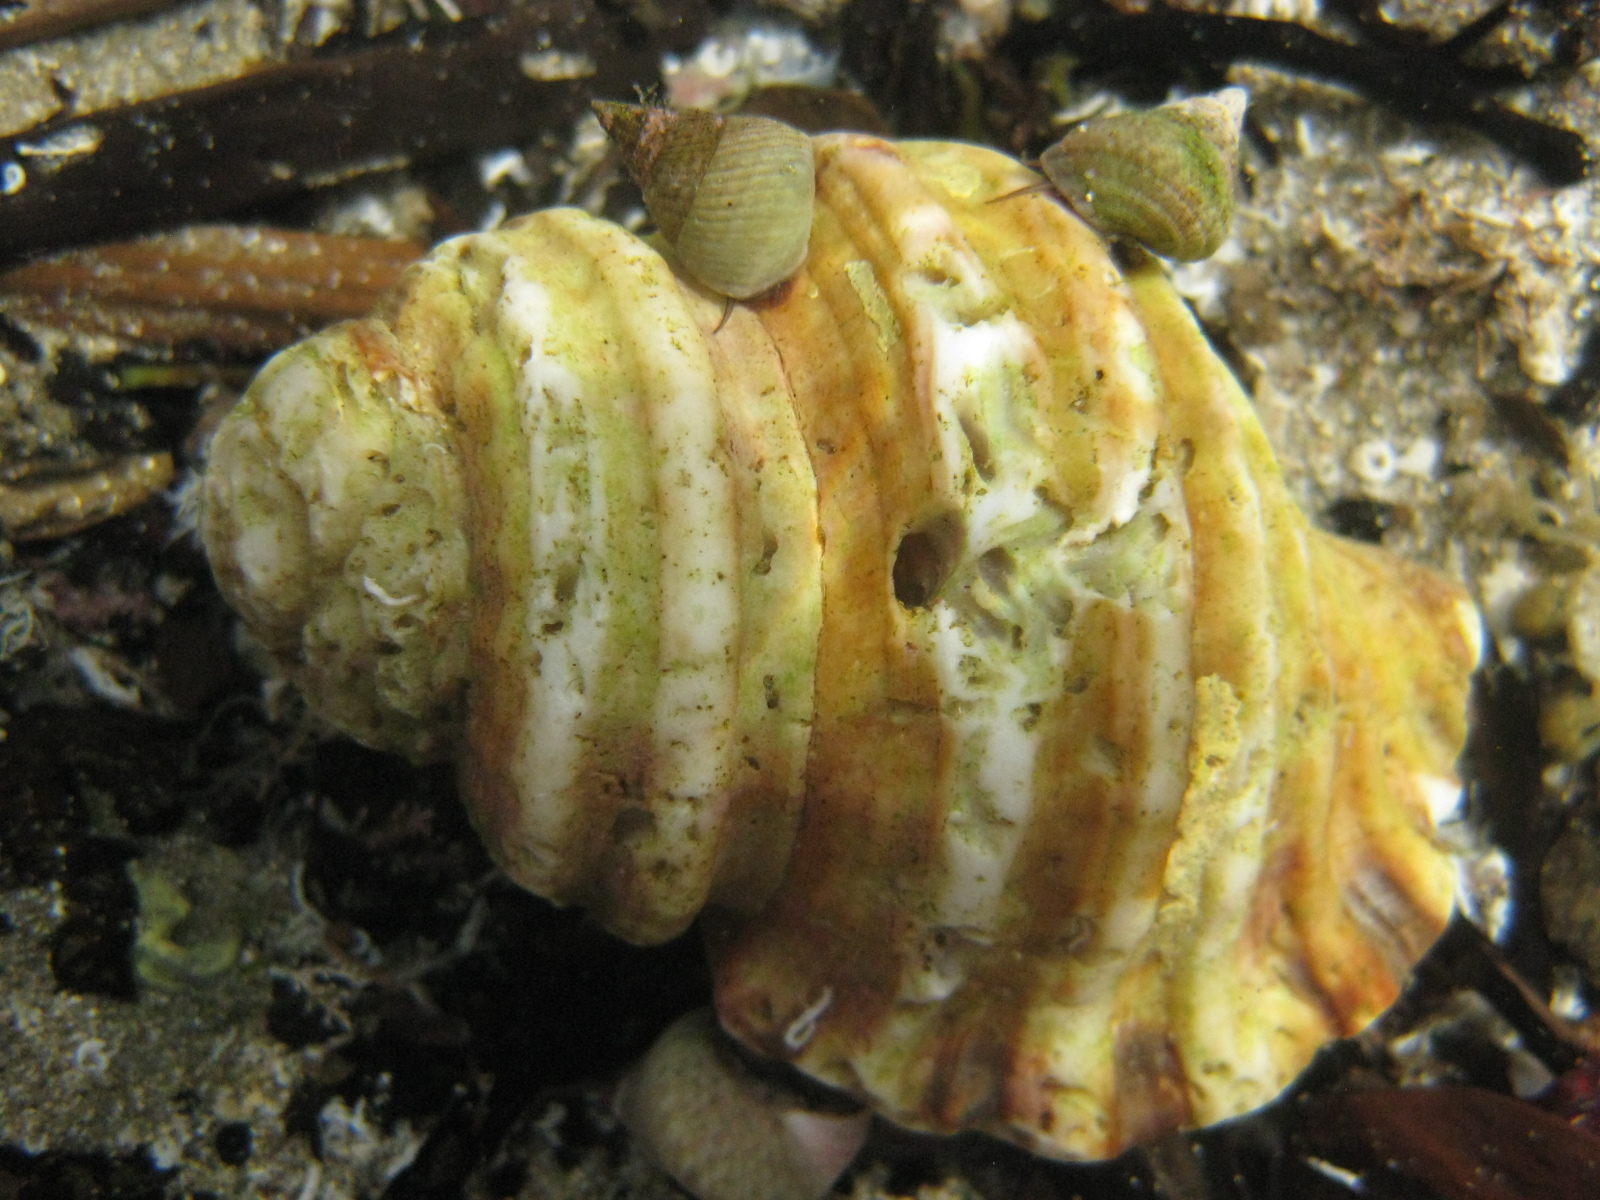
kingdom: Animalia
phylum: Mollusca
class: Gastropoda
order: Littorinimorpha
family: Cymatiidae
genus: Monoplex
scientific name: Monoplex parthenopeus
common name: Giant triton
